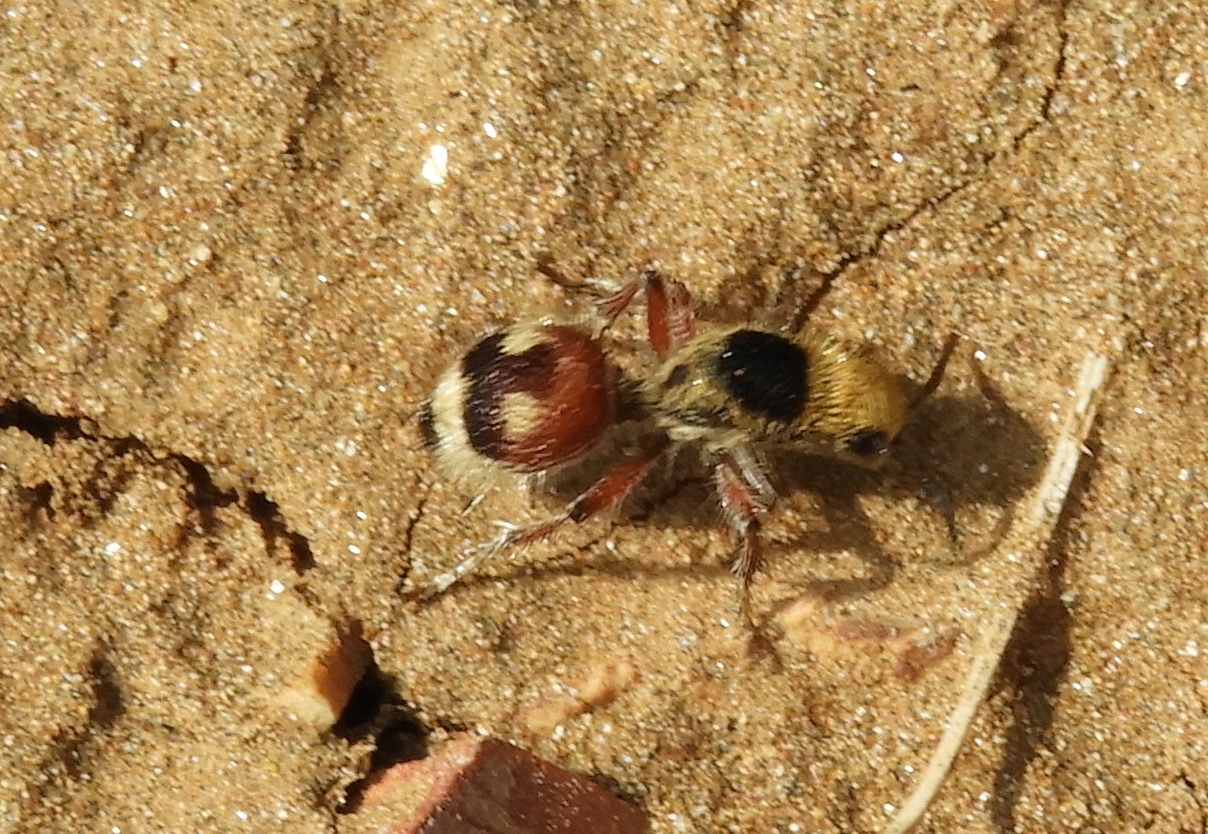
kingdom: Animalia
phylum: Arthropoda
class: Insecta
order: Hymenoptera
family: Mutillidae
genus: Dasymutilla
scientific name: Dasymutilla
